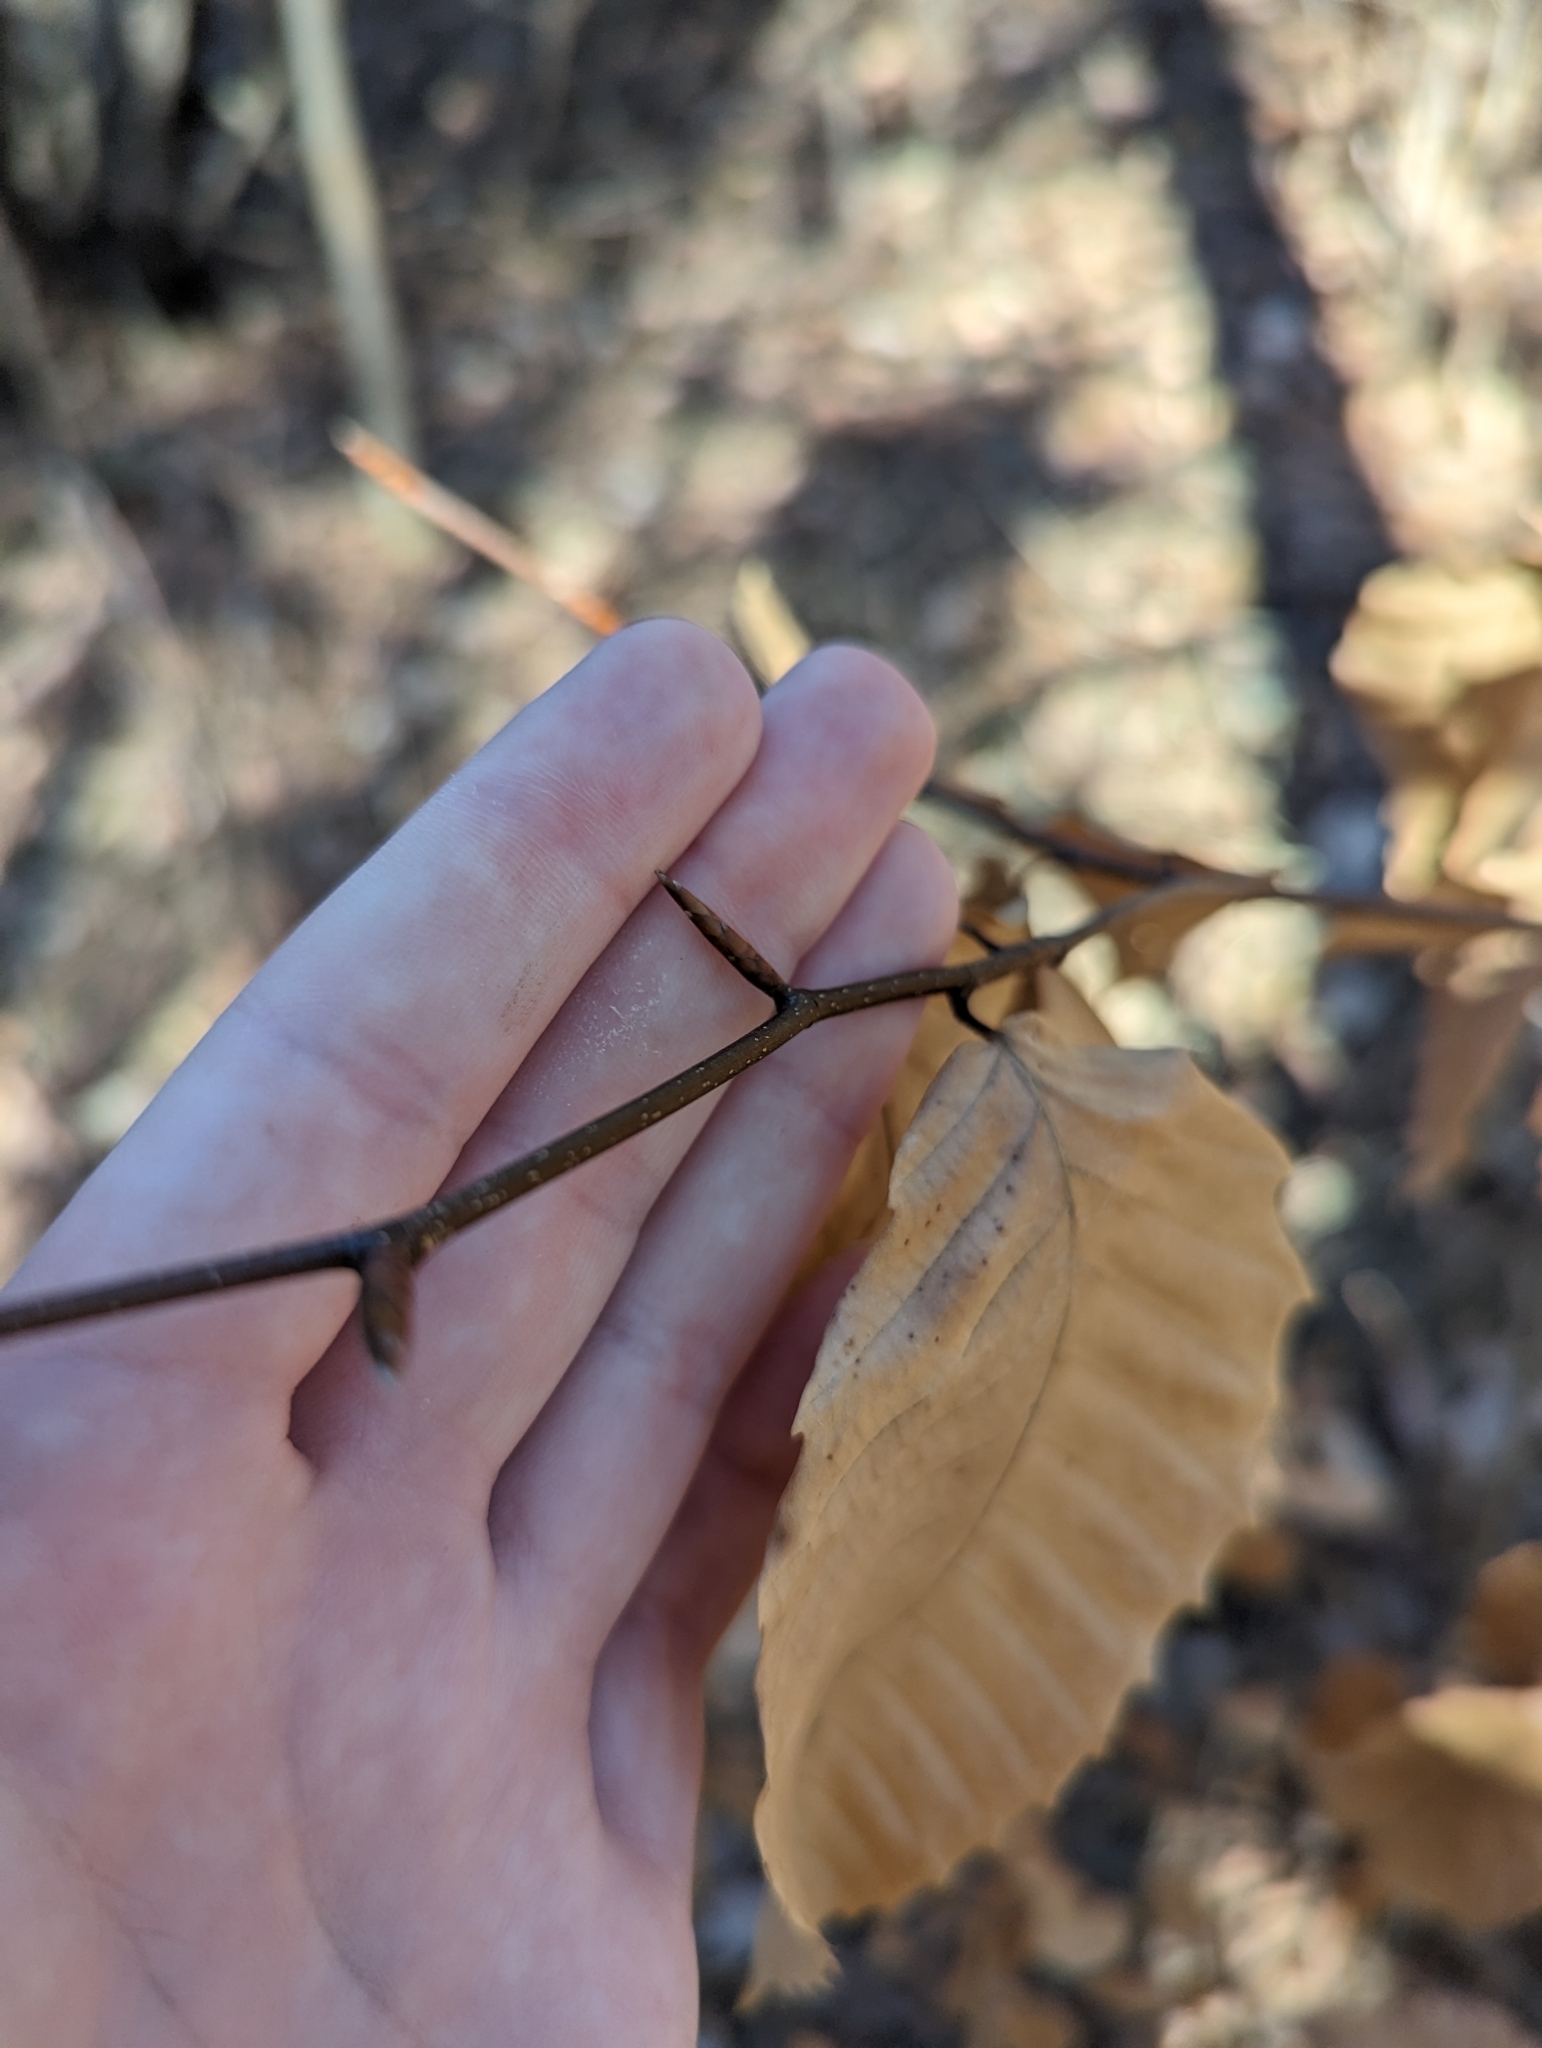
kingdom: Plantae
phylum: Tracheophyta
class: Magnoliopsida
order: Fagales
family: Fagaceae
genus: Fagus
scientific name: Fagus grandifolia
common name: American beech
